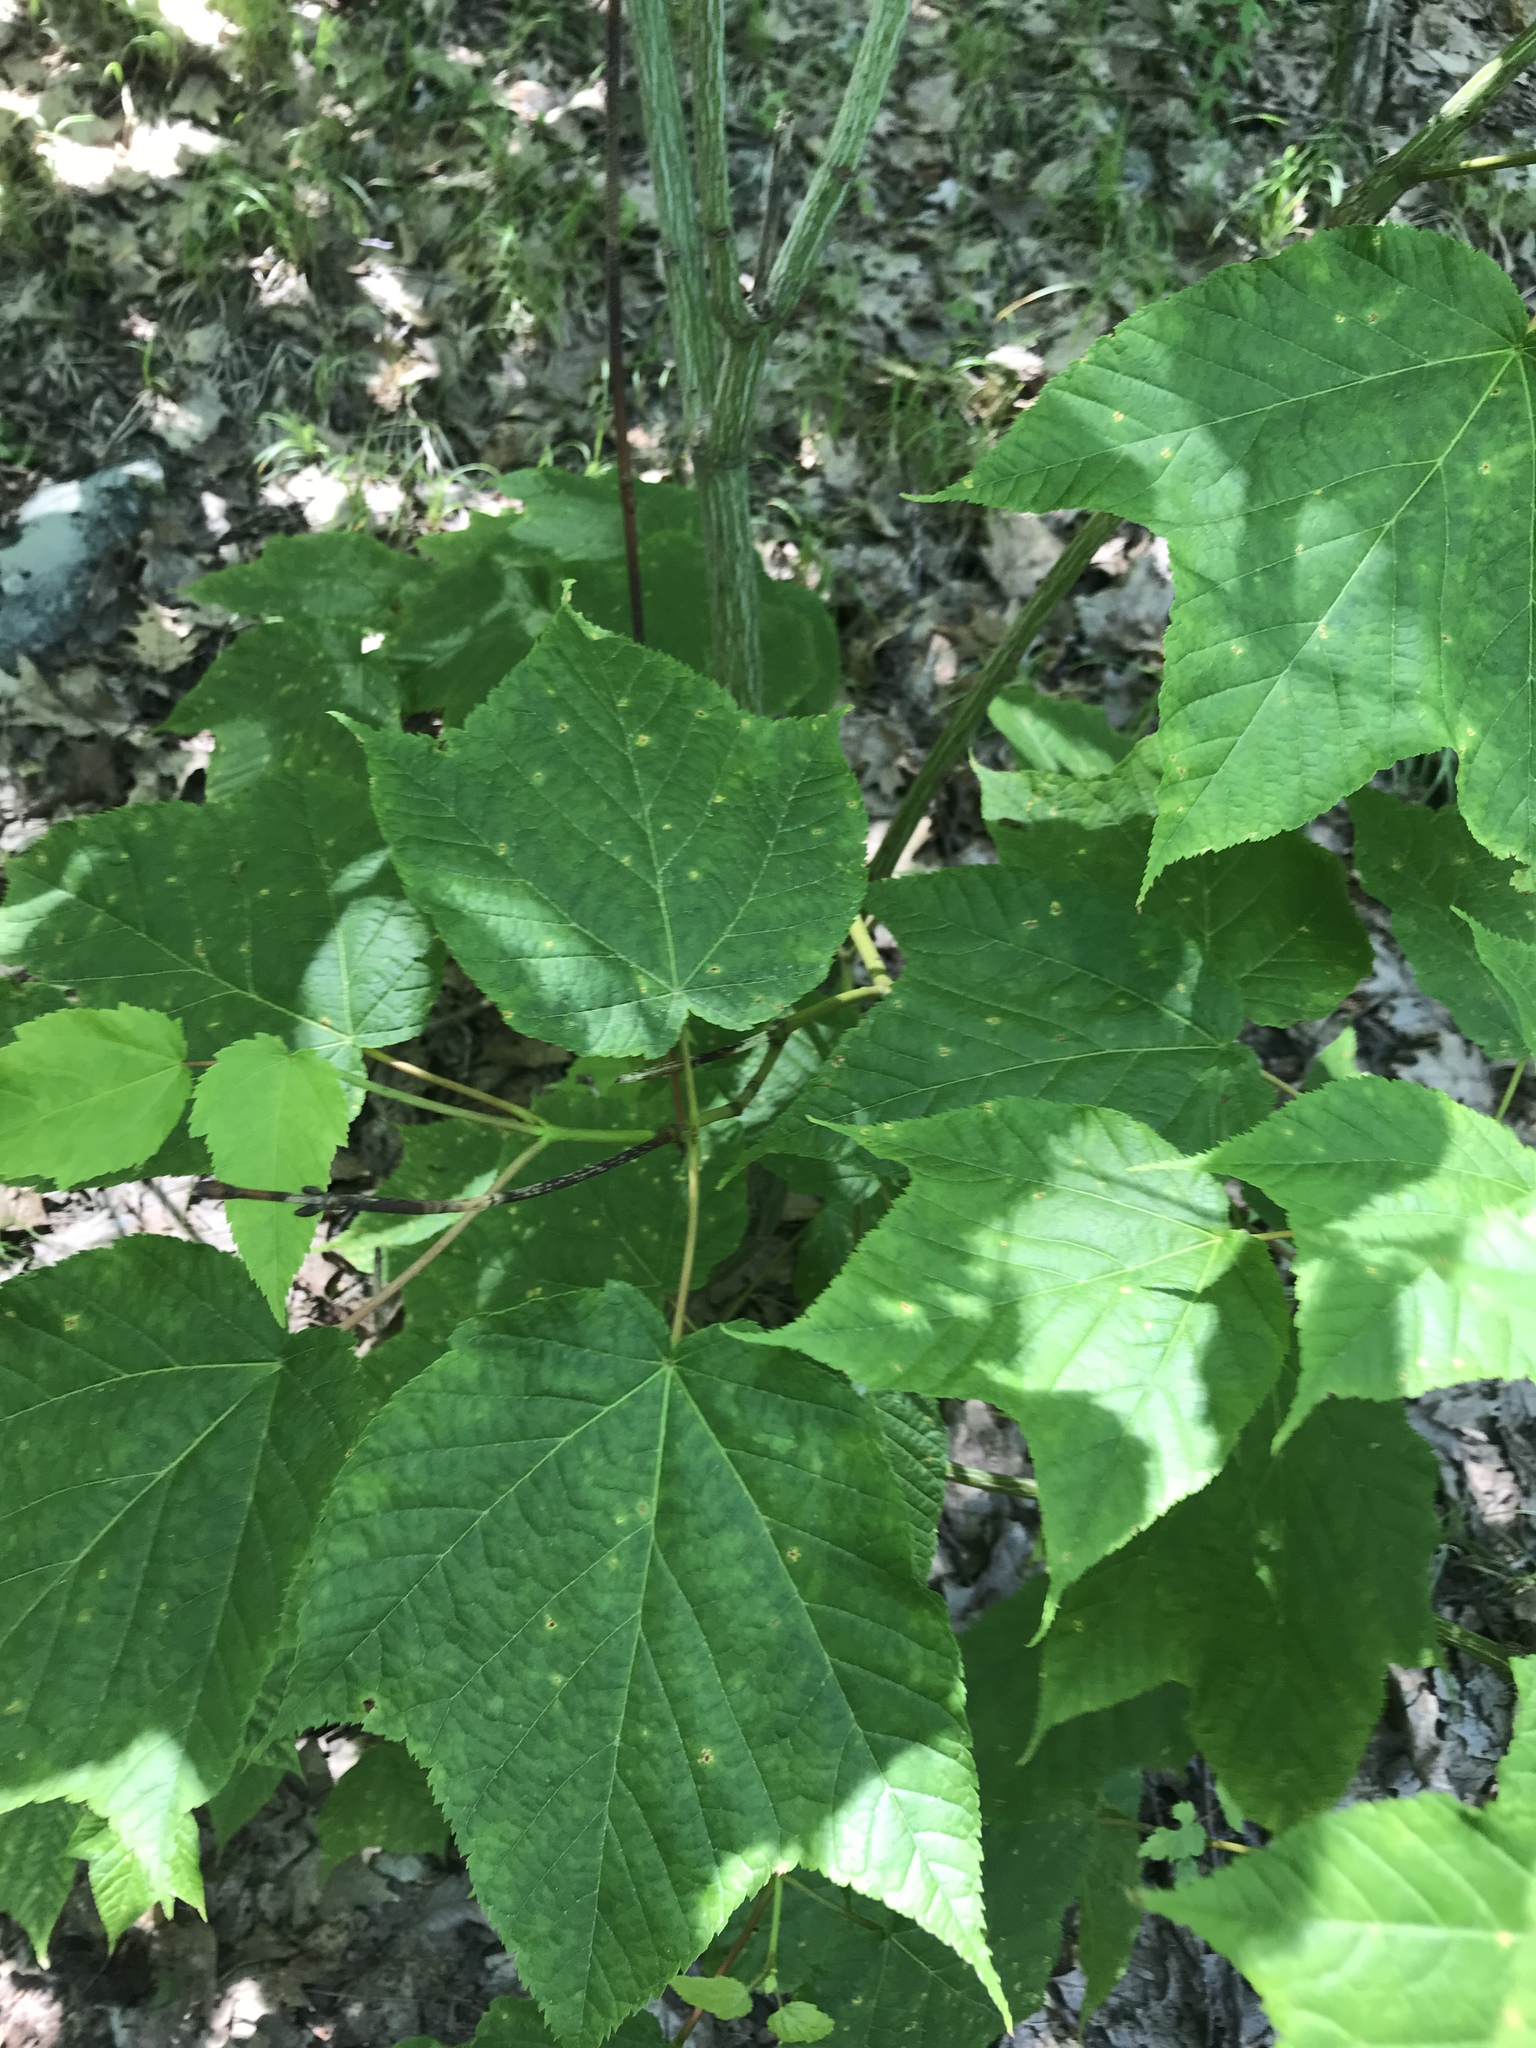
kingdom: Plantae
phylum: Tracheophyta
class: Magnoliopsida
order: Sapindales
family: Sapindaceae
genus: Acer
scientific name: Acer pensylvanicum
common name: Moosewood
